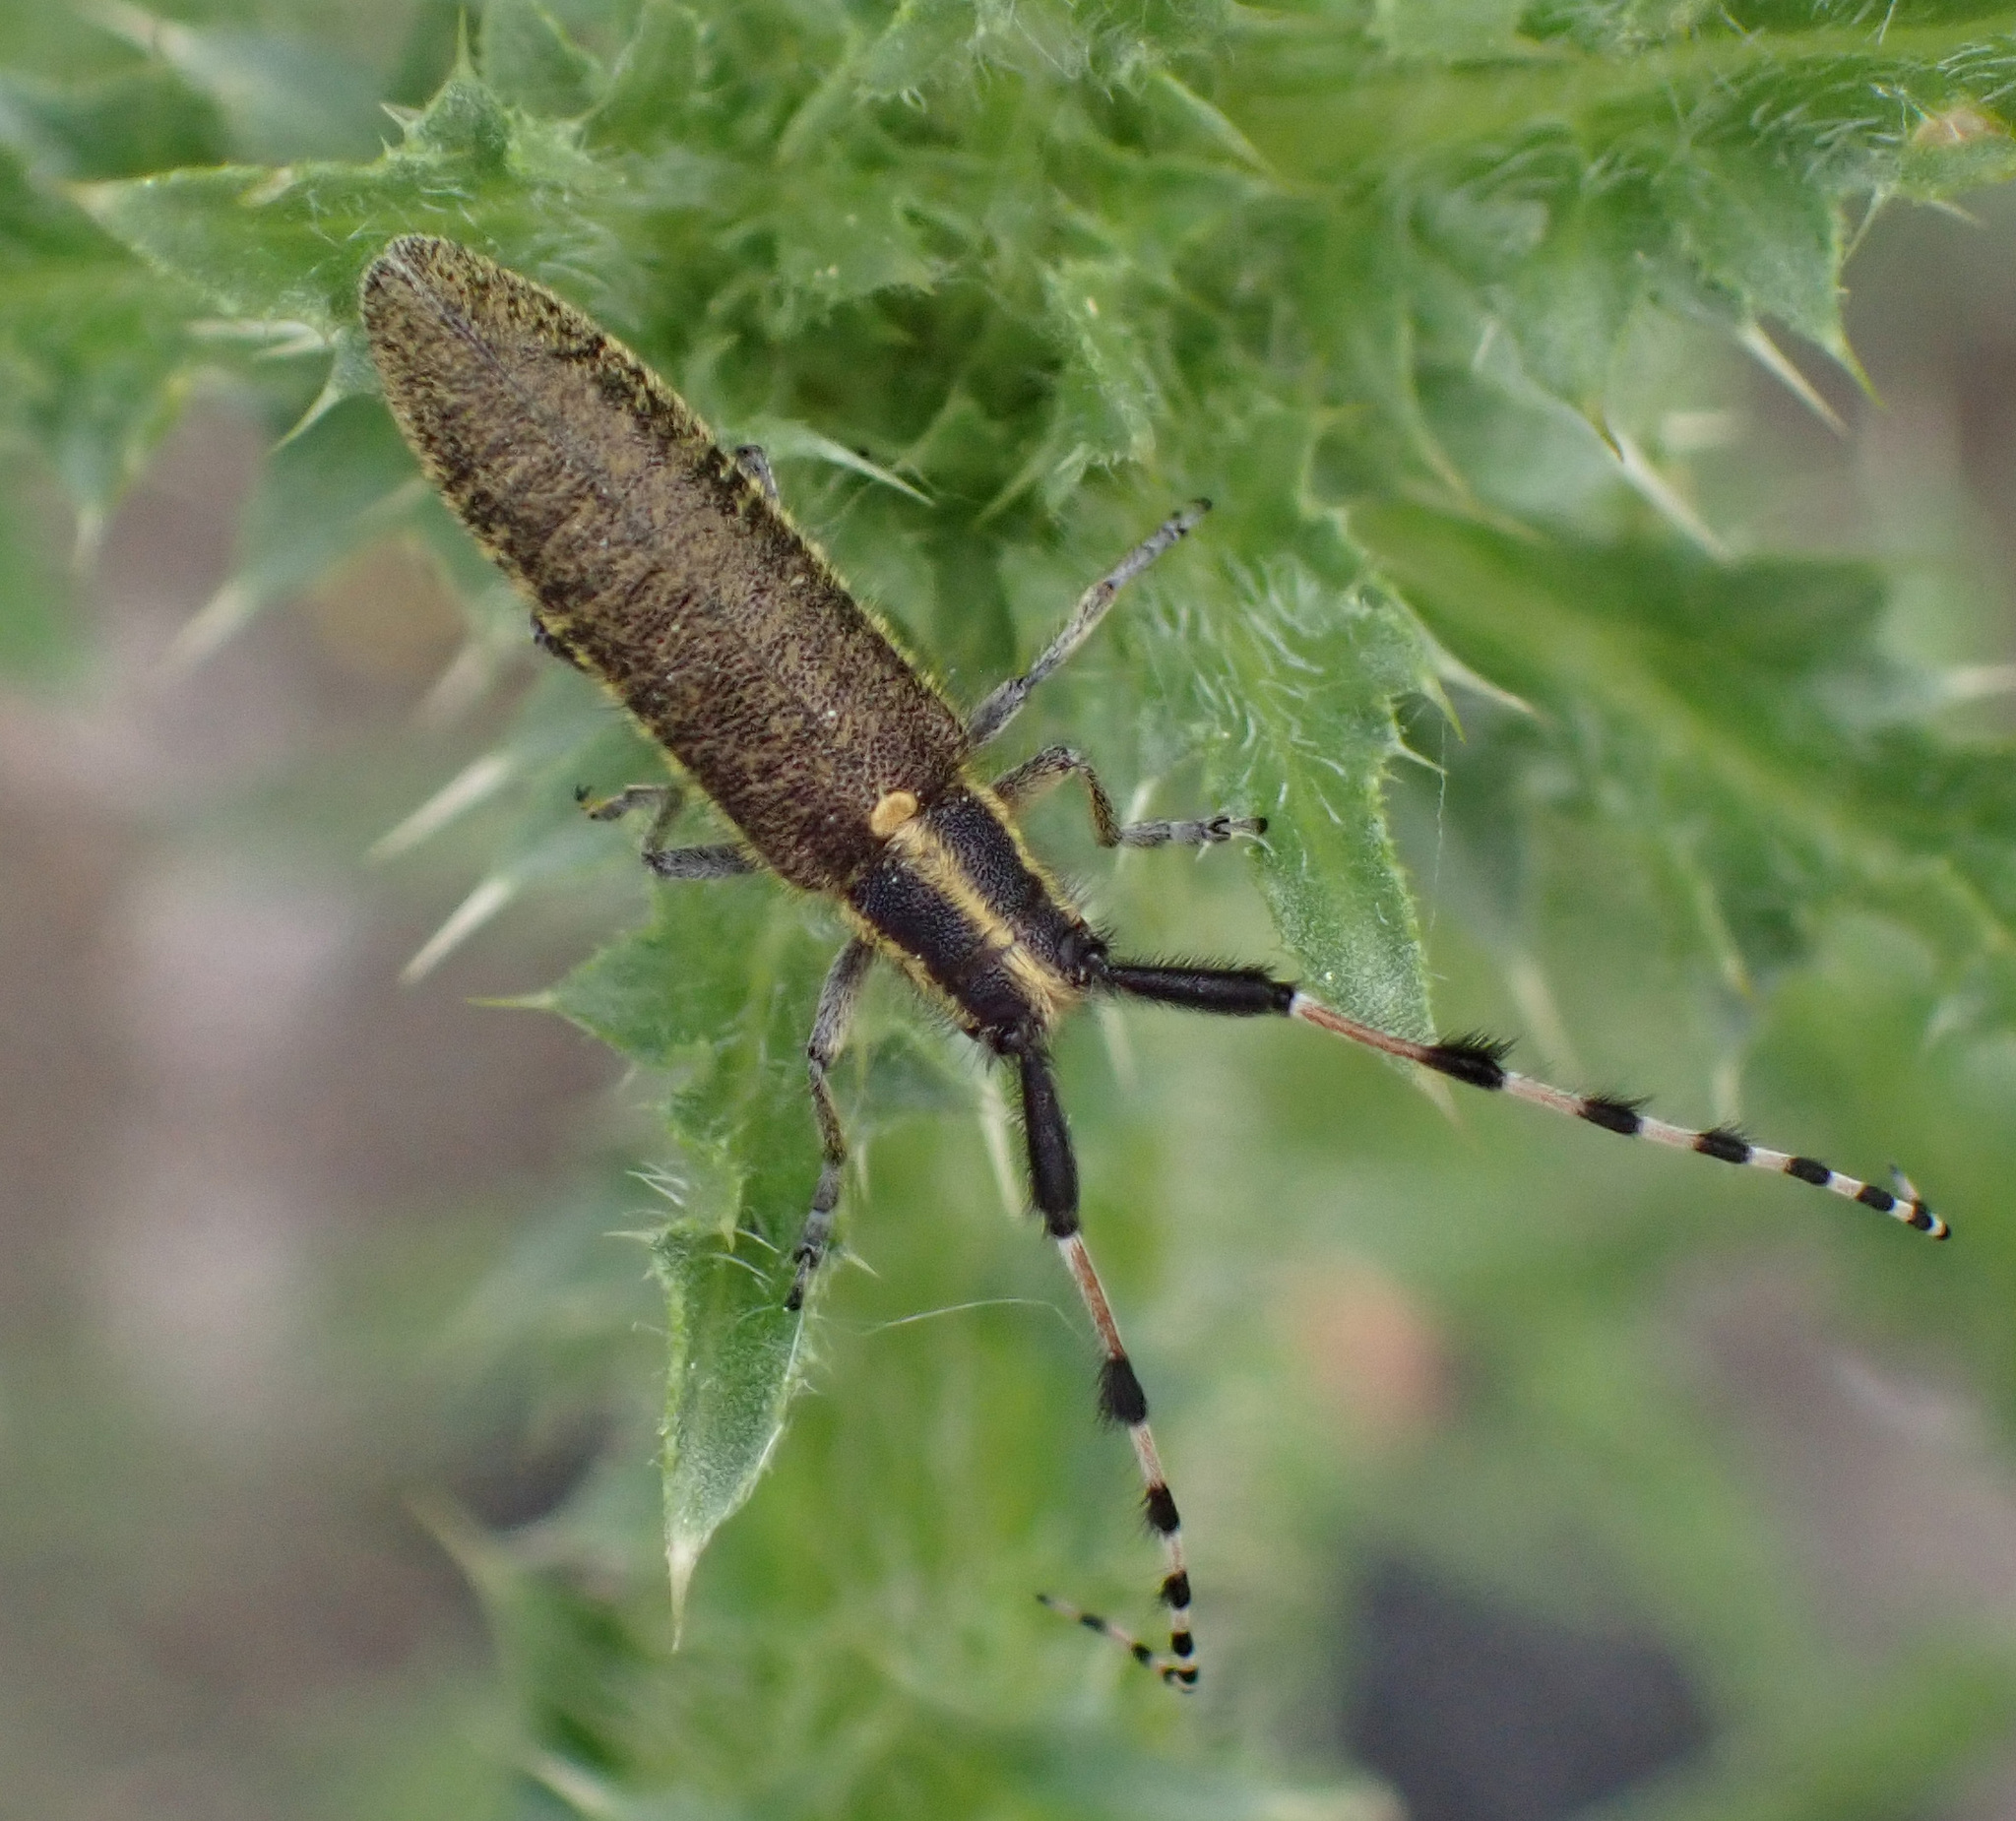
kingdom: Animalia
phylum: Arthropoda
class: Insecta
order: Coleoptera
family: Cerambycidae
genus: Agapanthia
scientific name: Agapanthia dahlii
